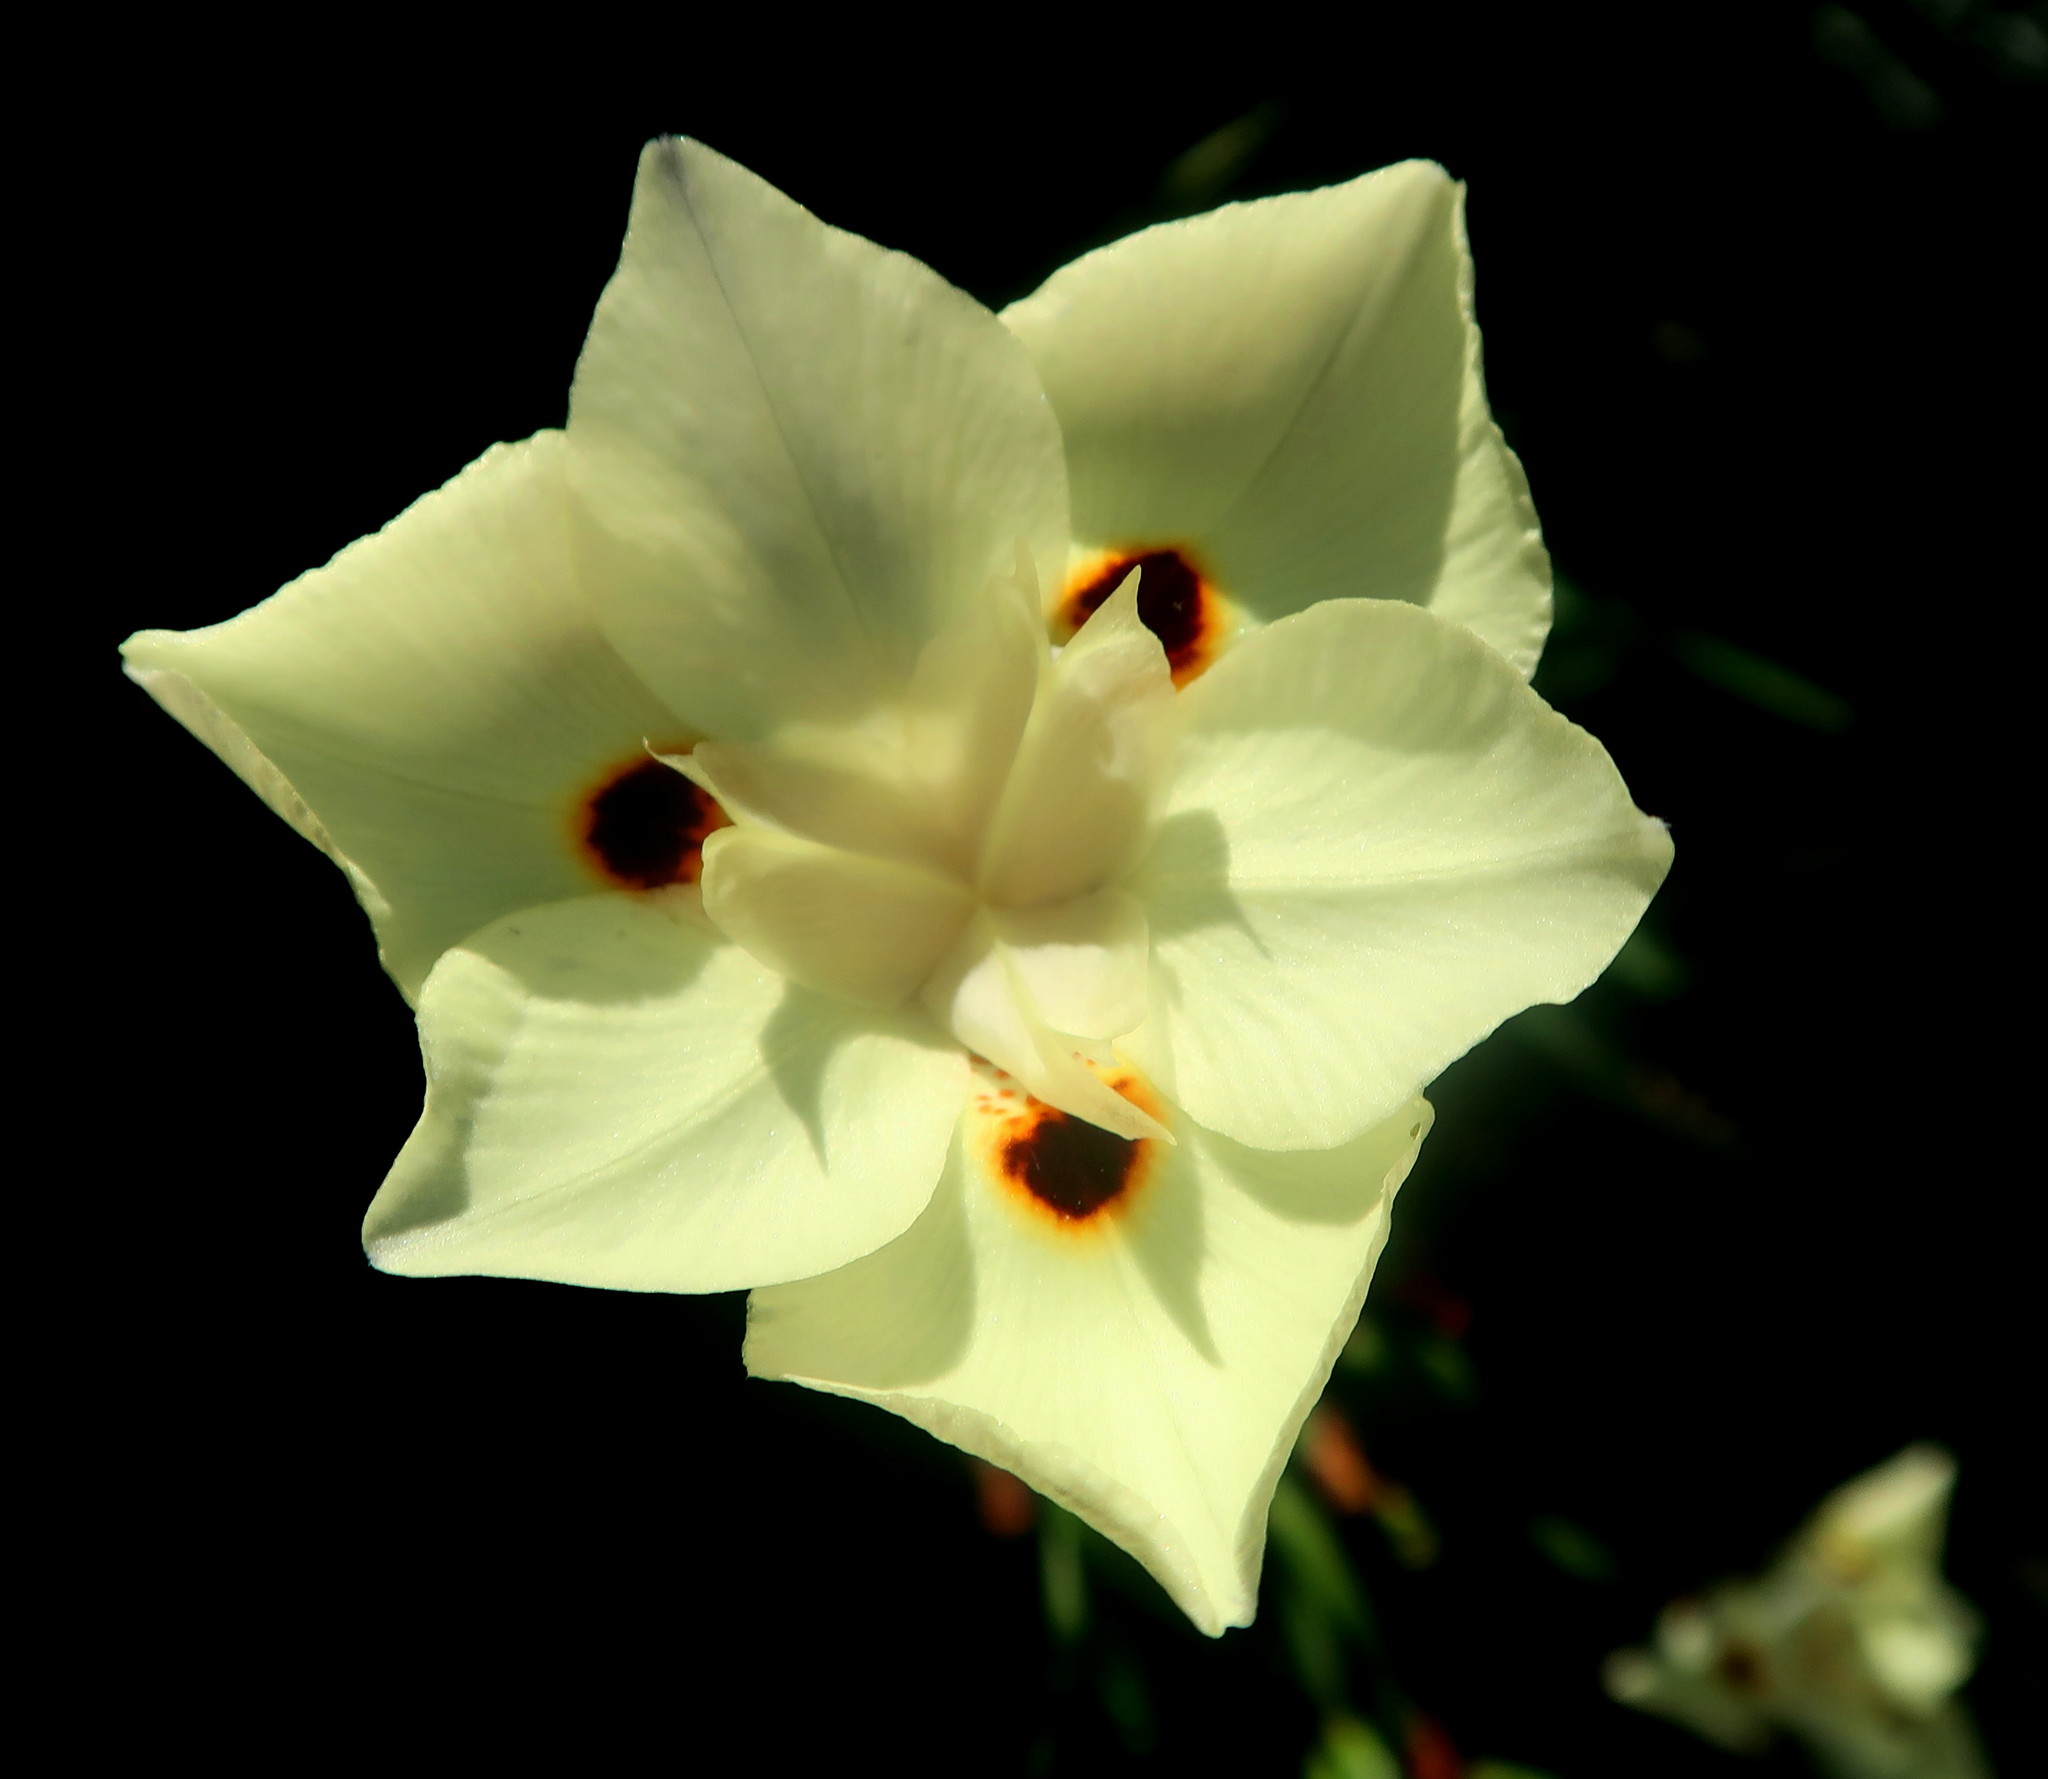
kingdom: Plantae
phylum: Tracheophyta
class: Liliopsida
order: Asparagales
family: Iridaceae
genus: Dietes
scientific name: Dietes bicolor
